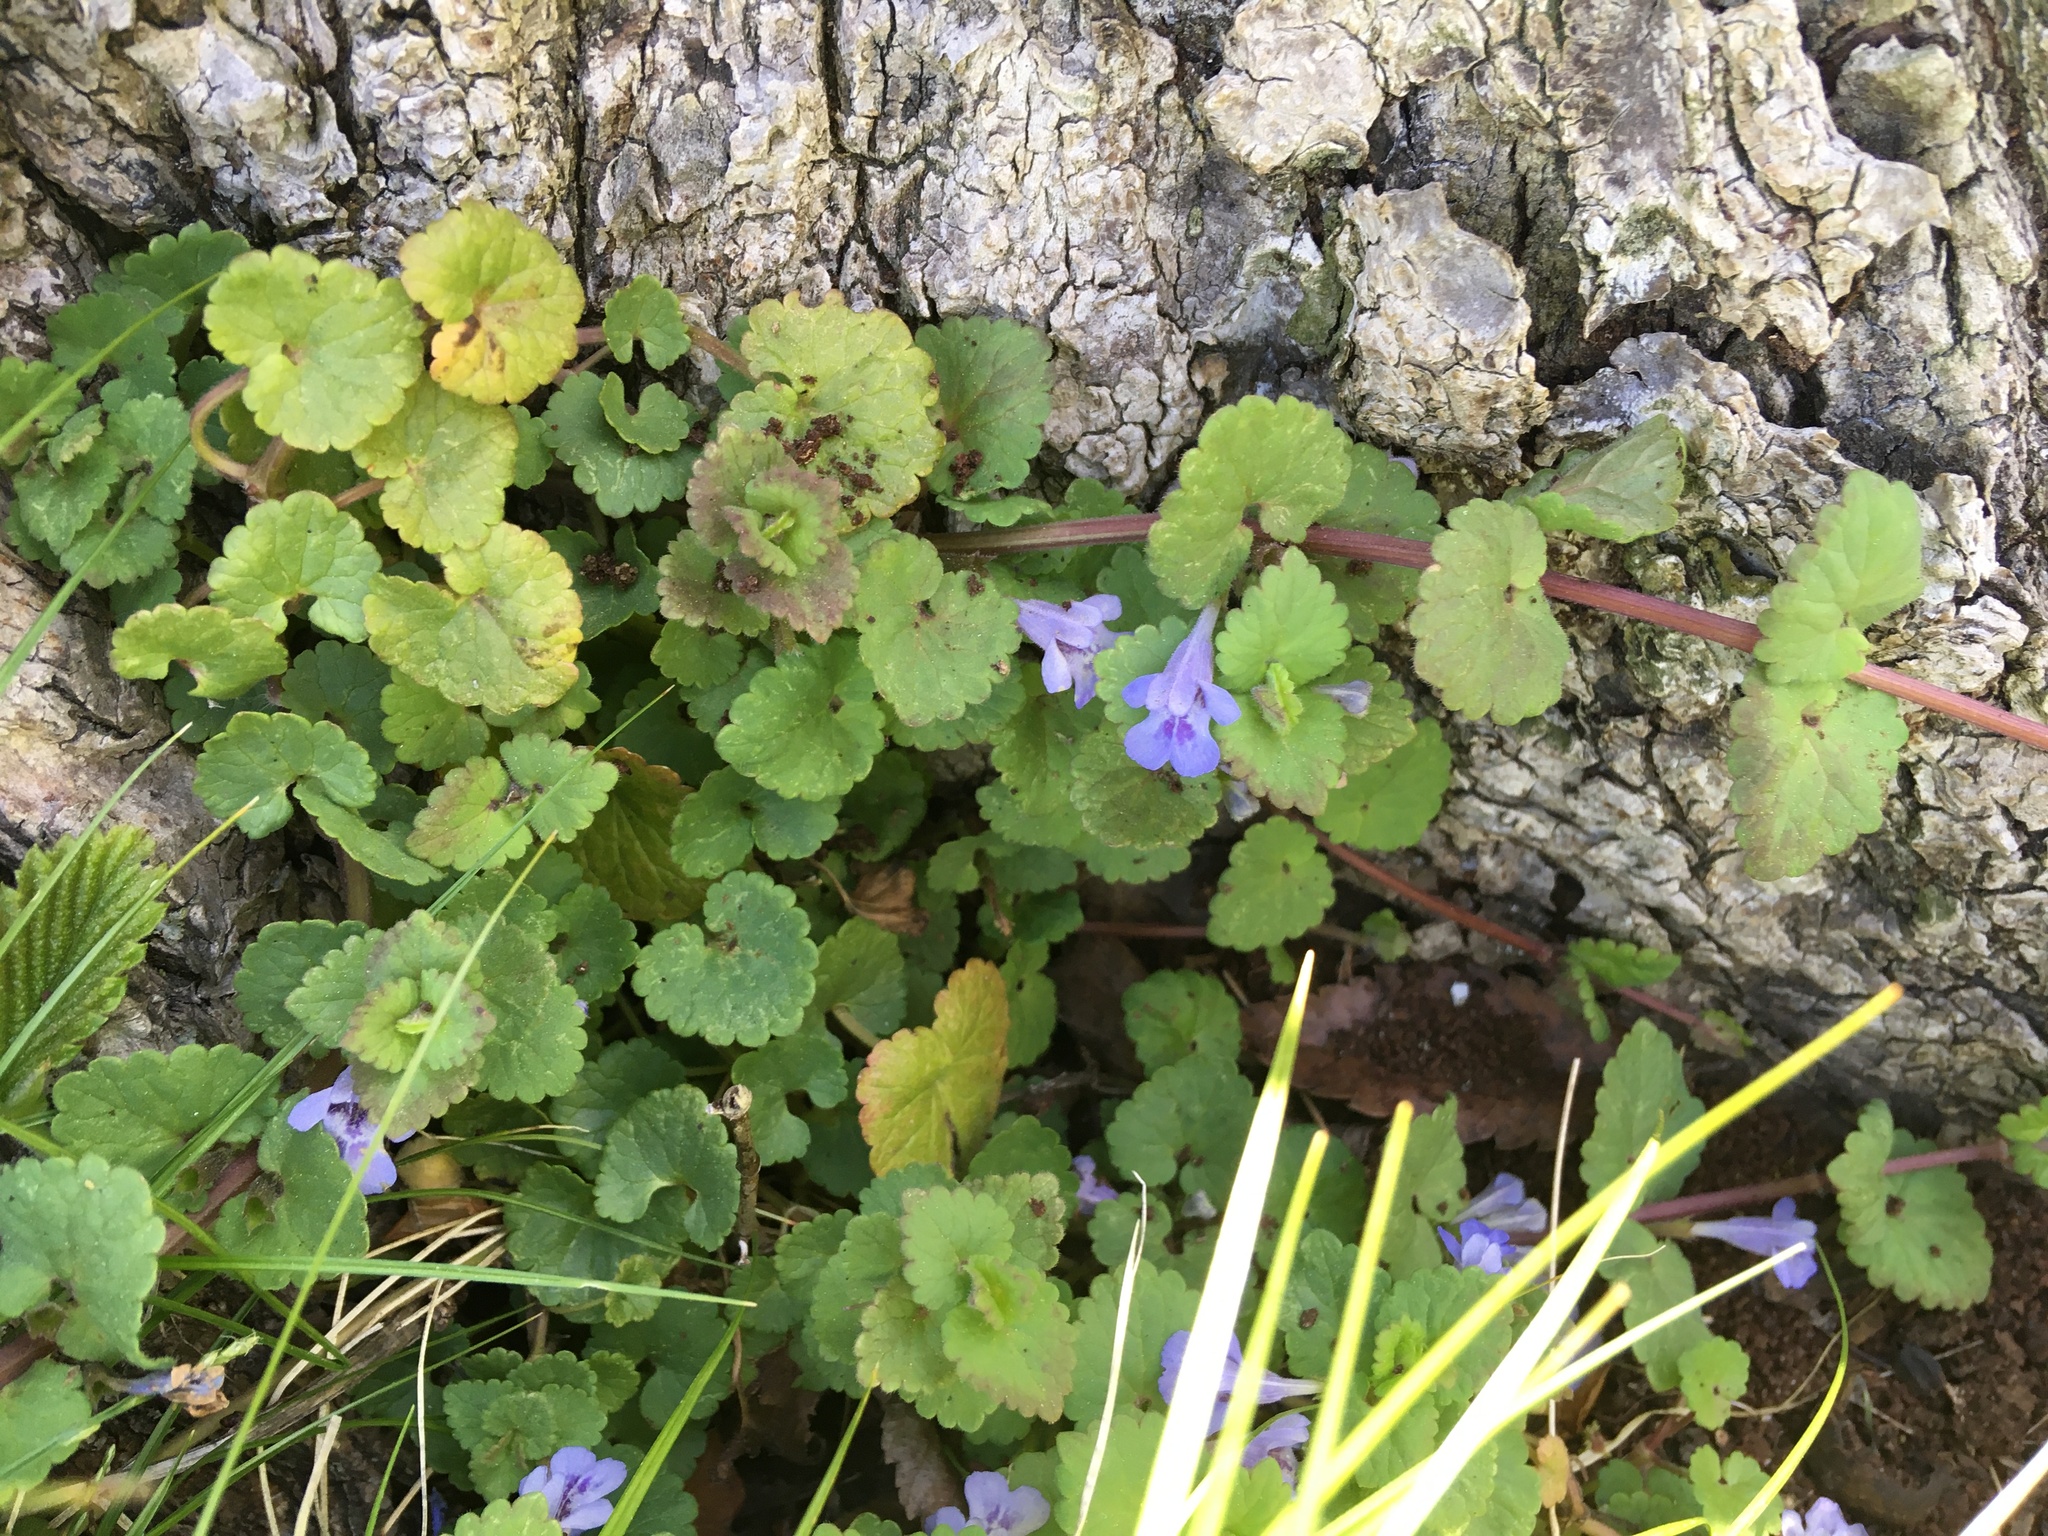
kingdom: Plantae
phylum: Tracheophyta
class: Magnoliopsida
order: Lamiales
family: Lamiaceae
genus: Glechoma
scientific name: Glechoma hederacea
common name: Ground ivy
